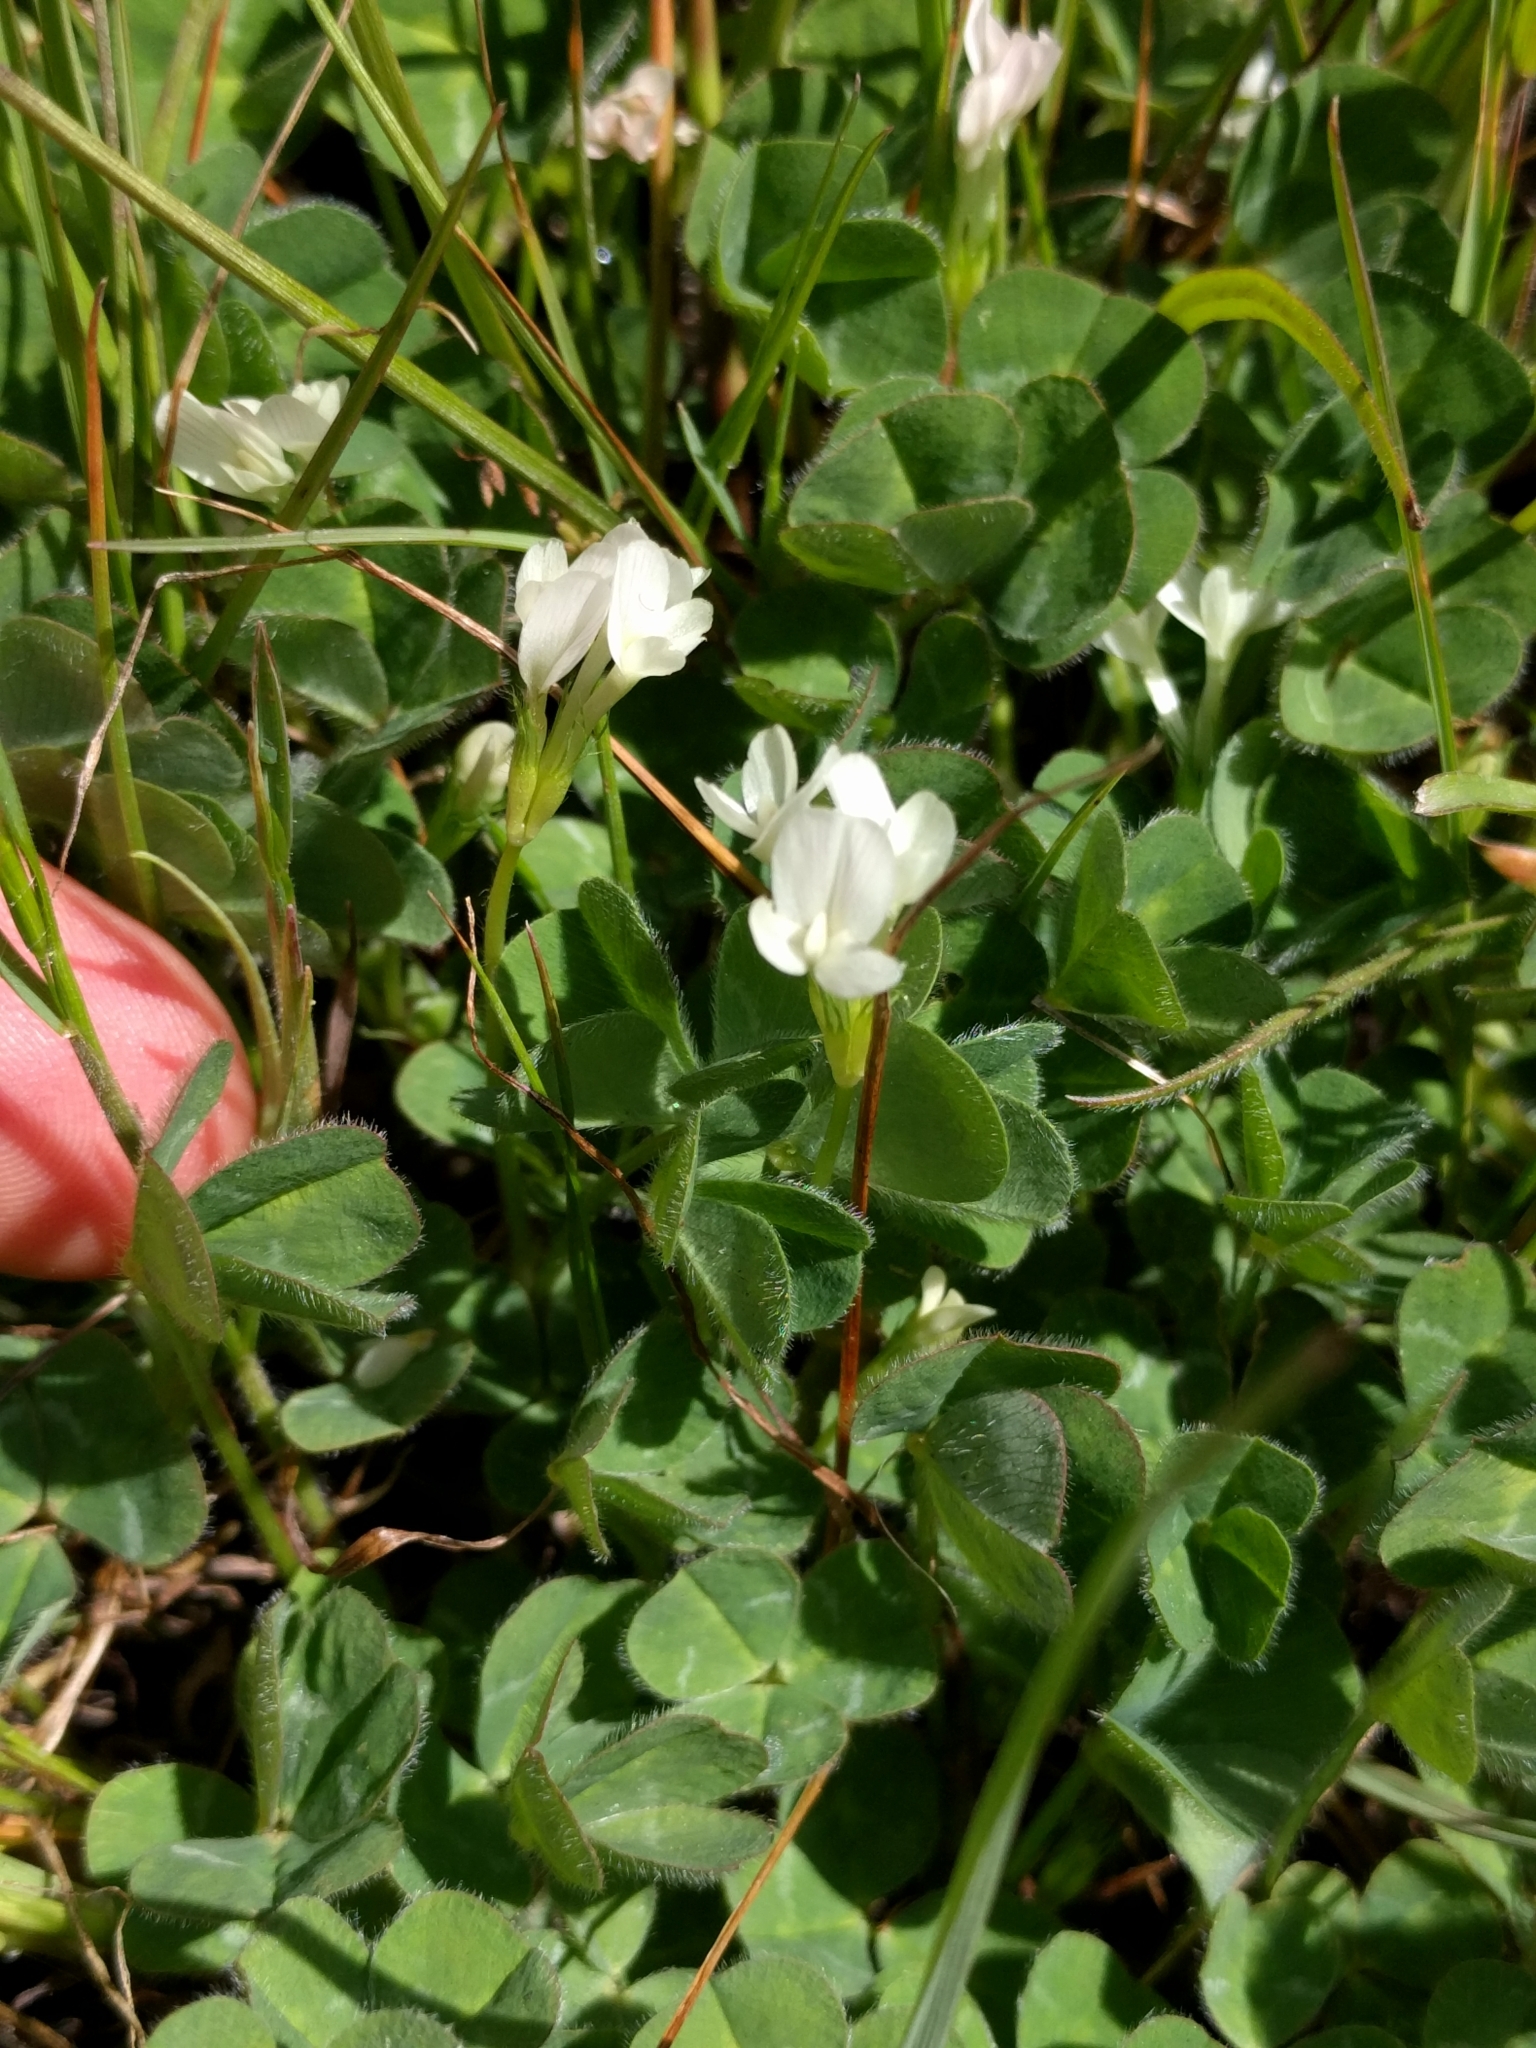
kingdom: Plantae
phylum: Tracheophyta
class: Magnoliopsida
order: Fabales
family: Fabaceae
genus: Trifolium
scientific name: Trifolium subterraneum
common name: Subterranean clover
